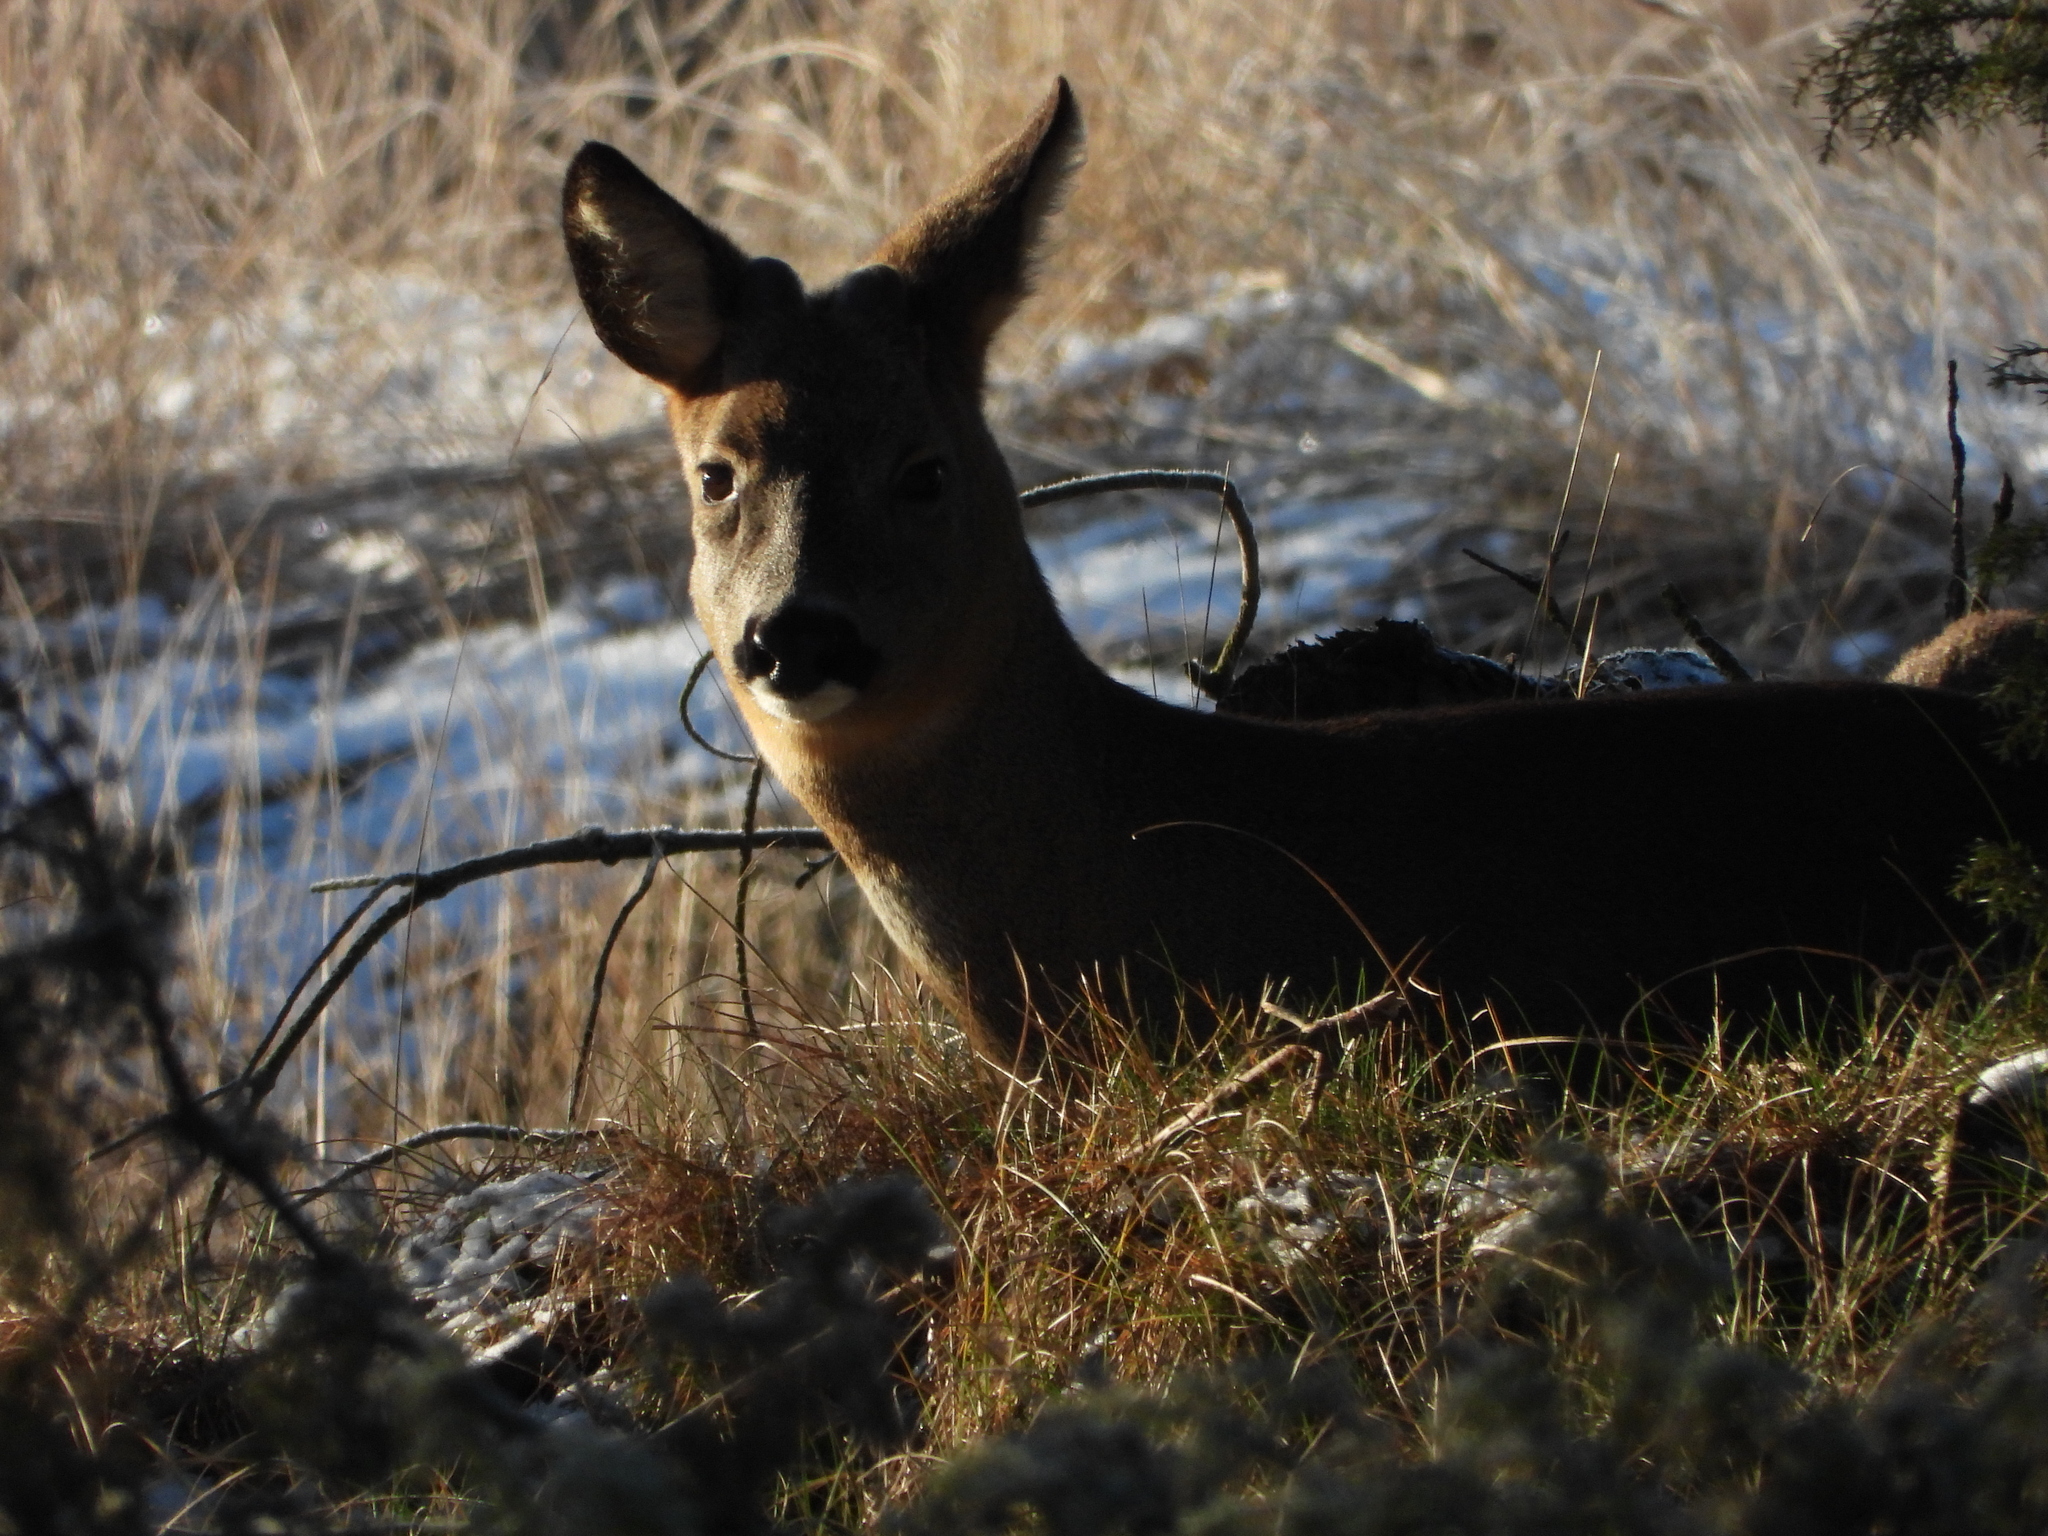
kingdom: Animalia
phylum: Chordata
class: Mammalia
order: Artiodactyla
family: Cervidae
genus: Capreolus
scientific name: Capreolus capreolus
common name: Western roe deer
